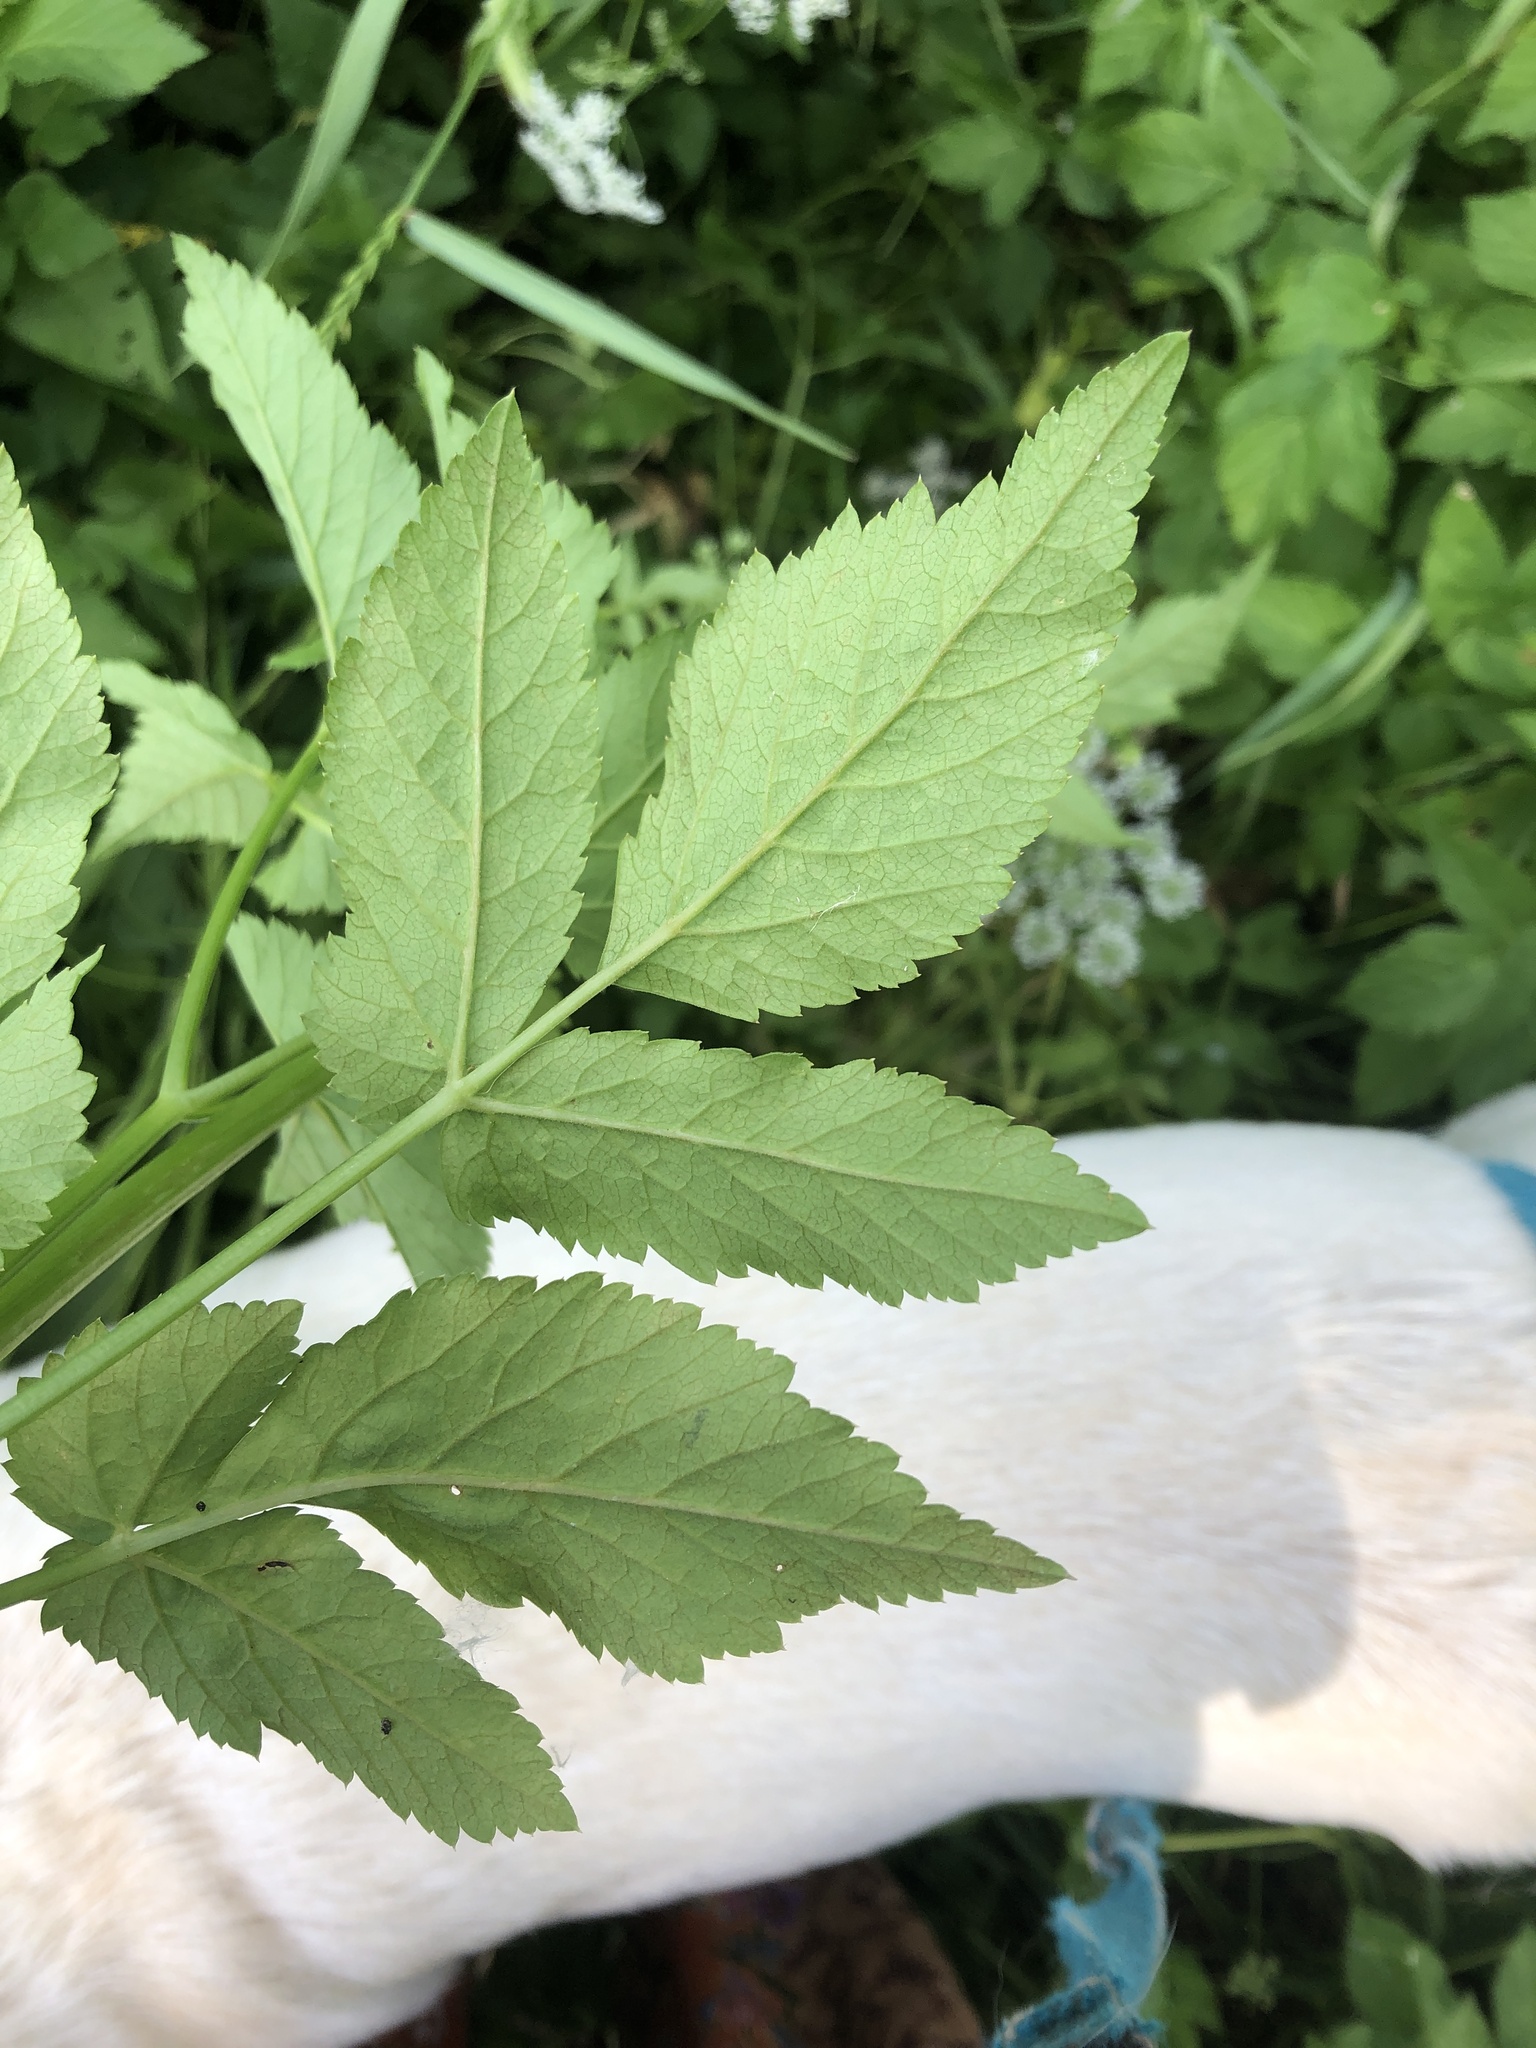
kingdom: Plantae
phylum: Tracheophyta
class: Magnoliopsida
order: Apiales
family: Apiaceae
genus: Aegopodium
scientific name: Aegopodium podagraria
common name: Ground-elder
